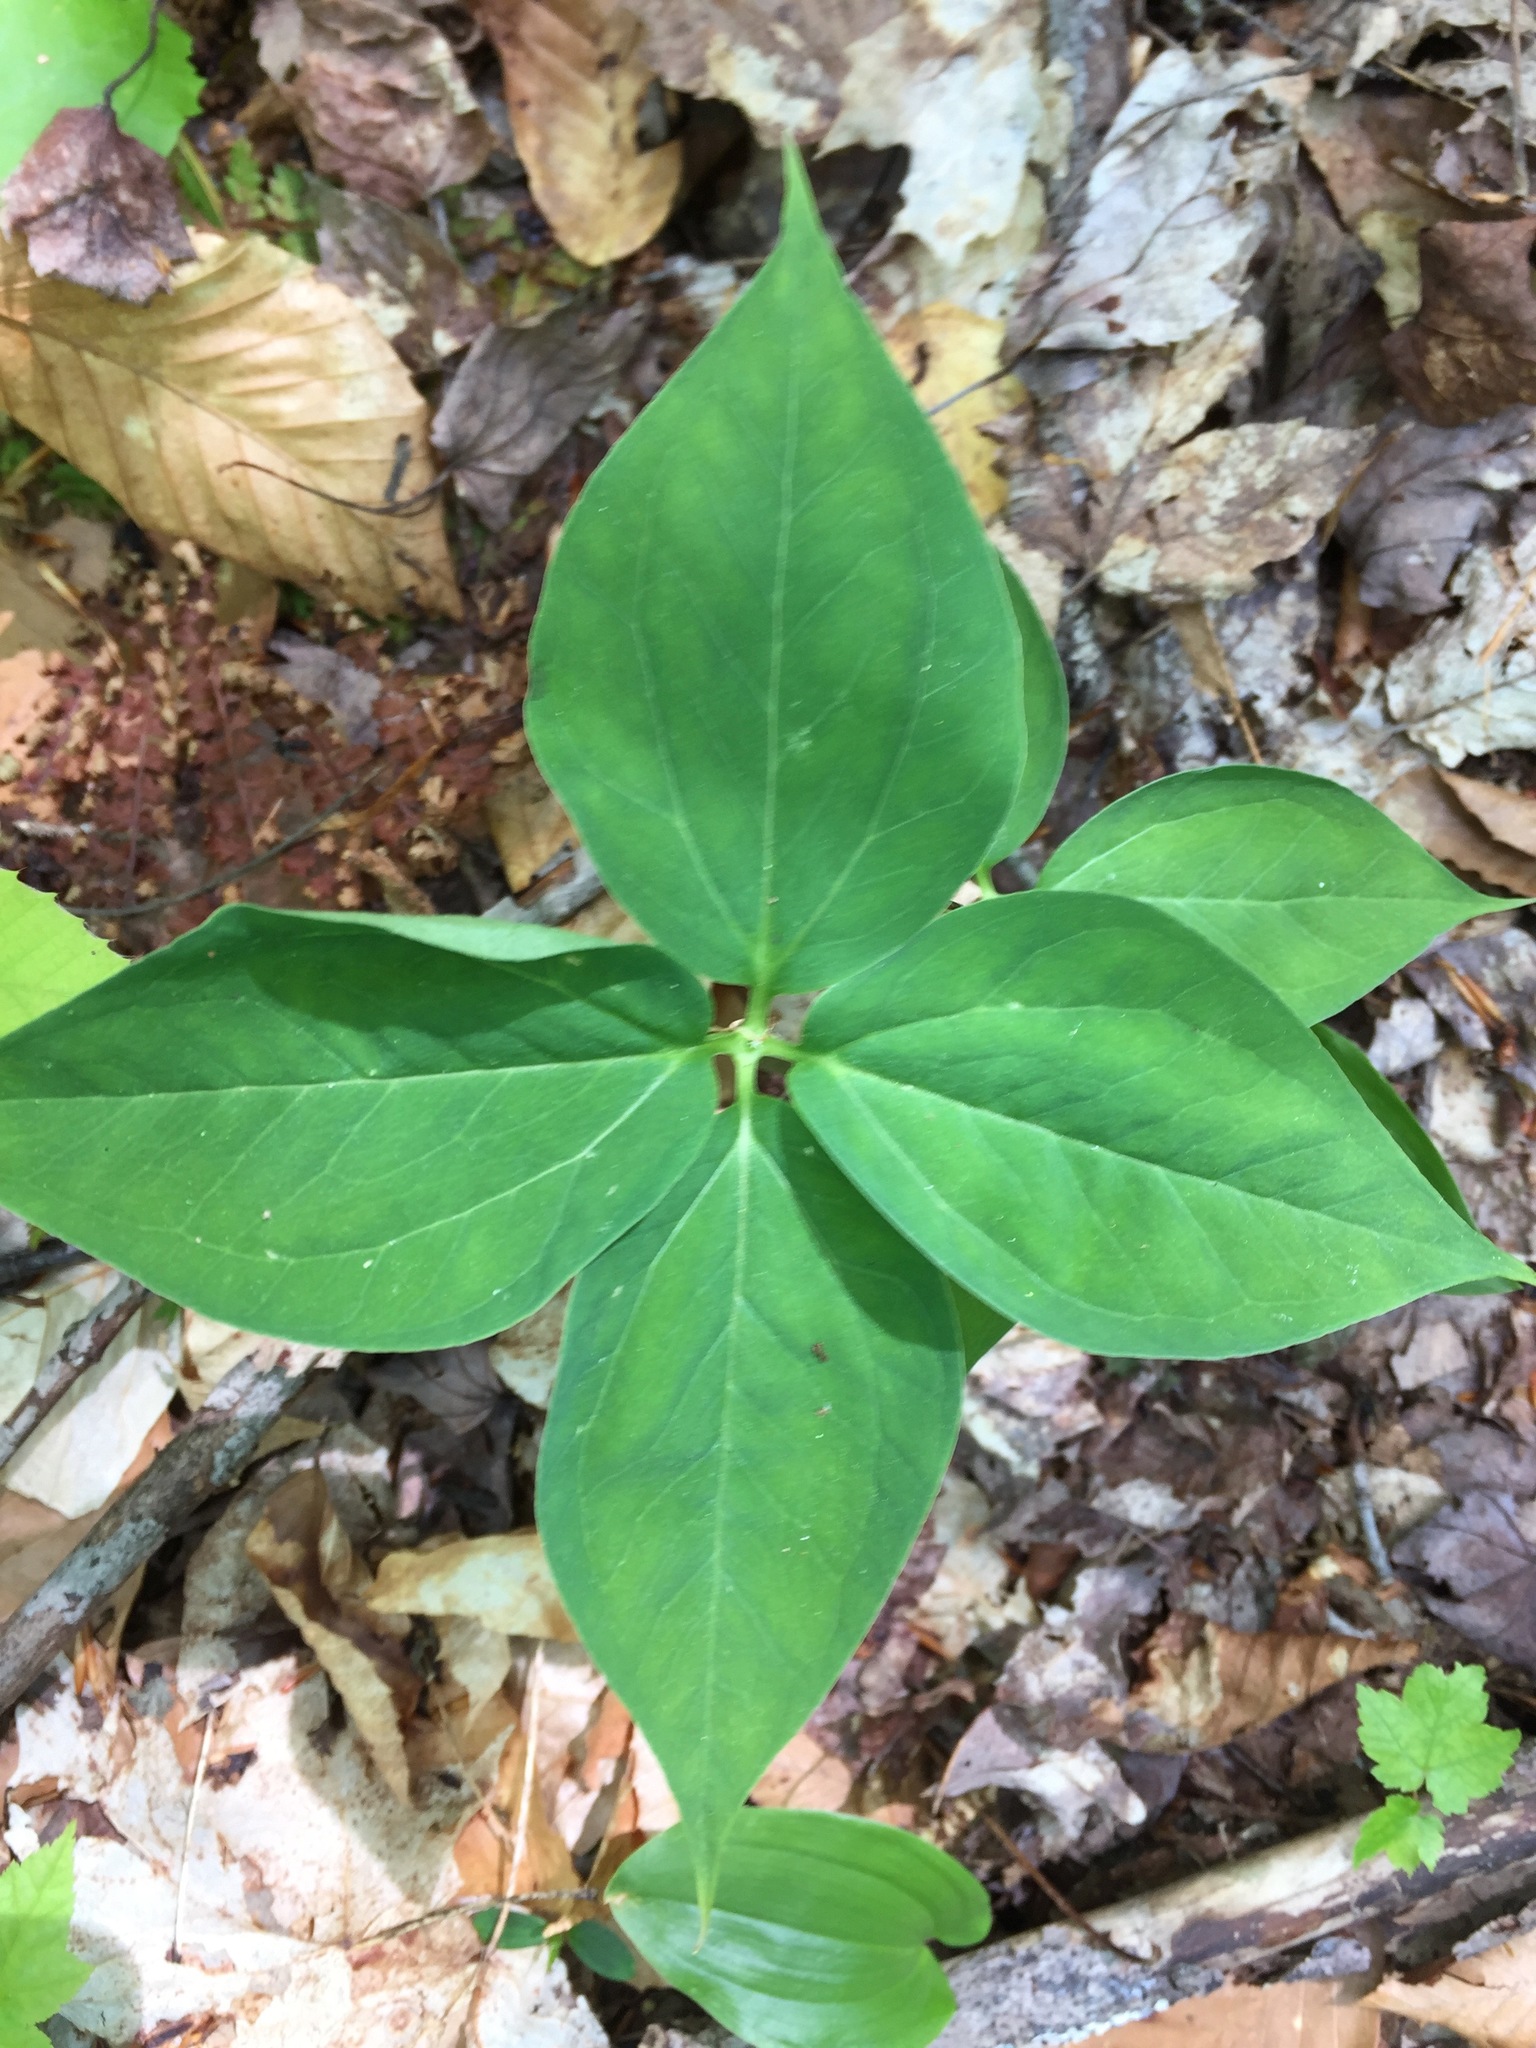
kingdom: Plantae
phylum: Tracheophyta
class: Liliopsida
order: Liliales
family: Melanthiaceae
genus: Trillium
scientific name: Trillium undulatum
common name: Paint trillium
